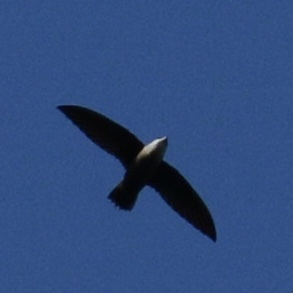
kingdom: Animalia
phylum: Chordata
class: Aves
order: Apodiformes
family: Apodidae
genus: Chaetura
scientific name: Chaetura pelagica
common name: Chimney swift
